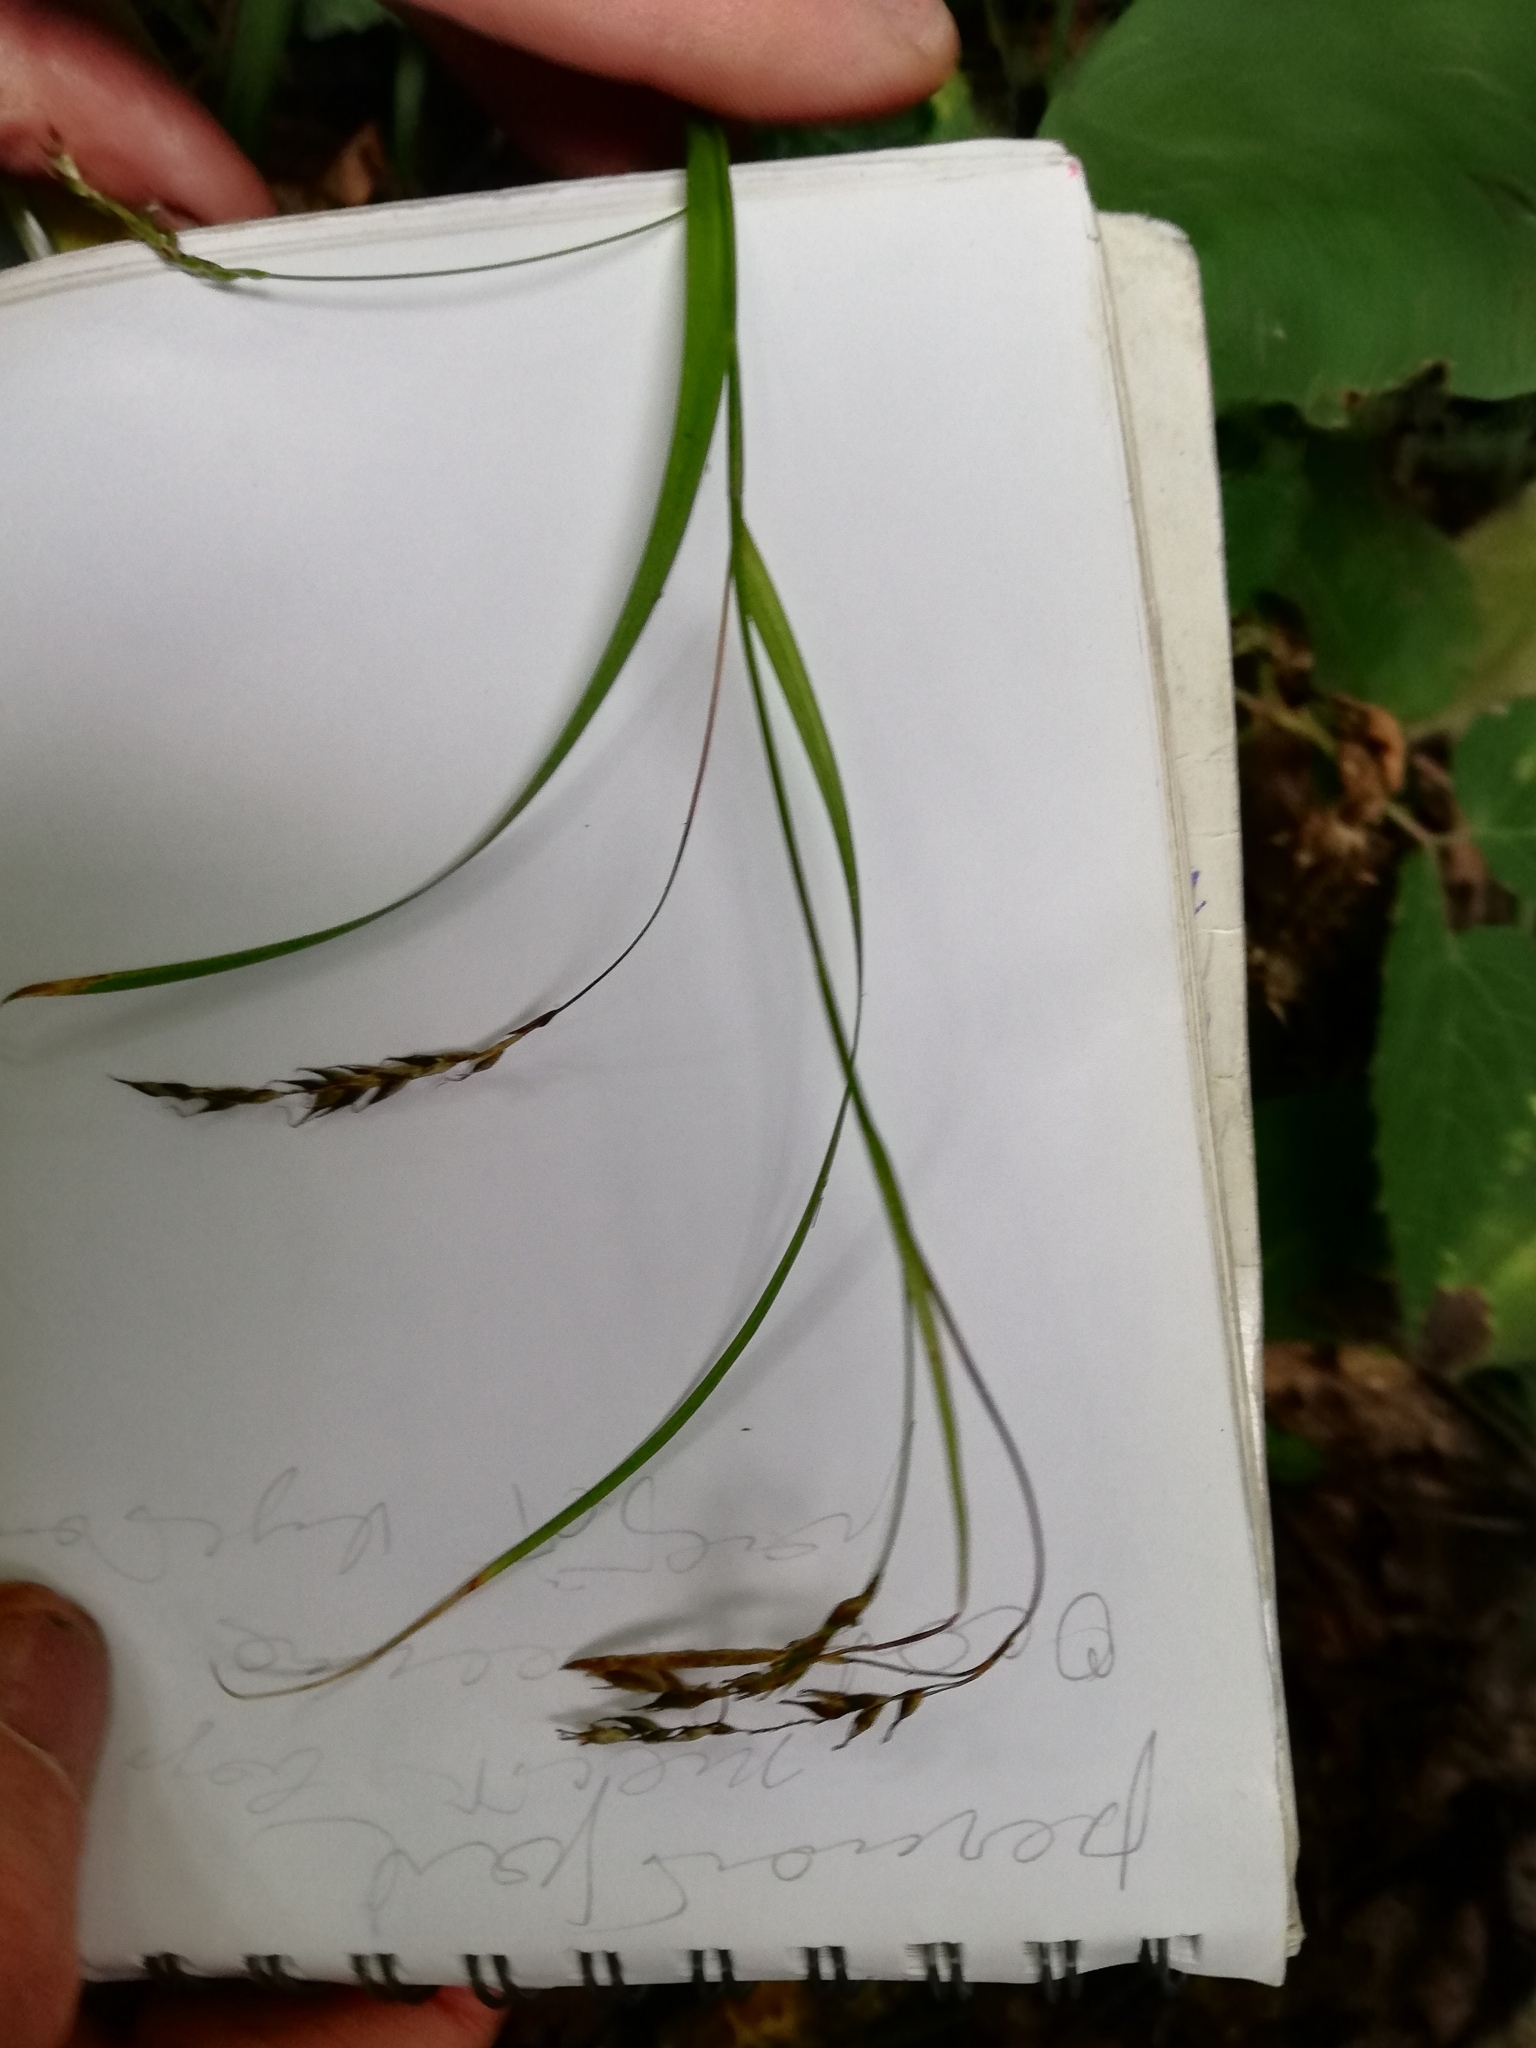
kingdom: Plantae
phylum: Tracheophyta
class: Liliopsida
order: Poales
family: Cyperaceae
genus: Carex
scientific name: Carex sylvatica
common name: Wood-sedge
